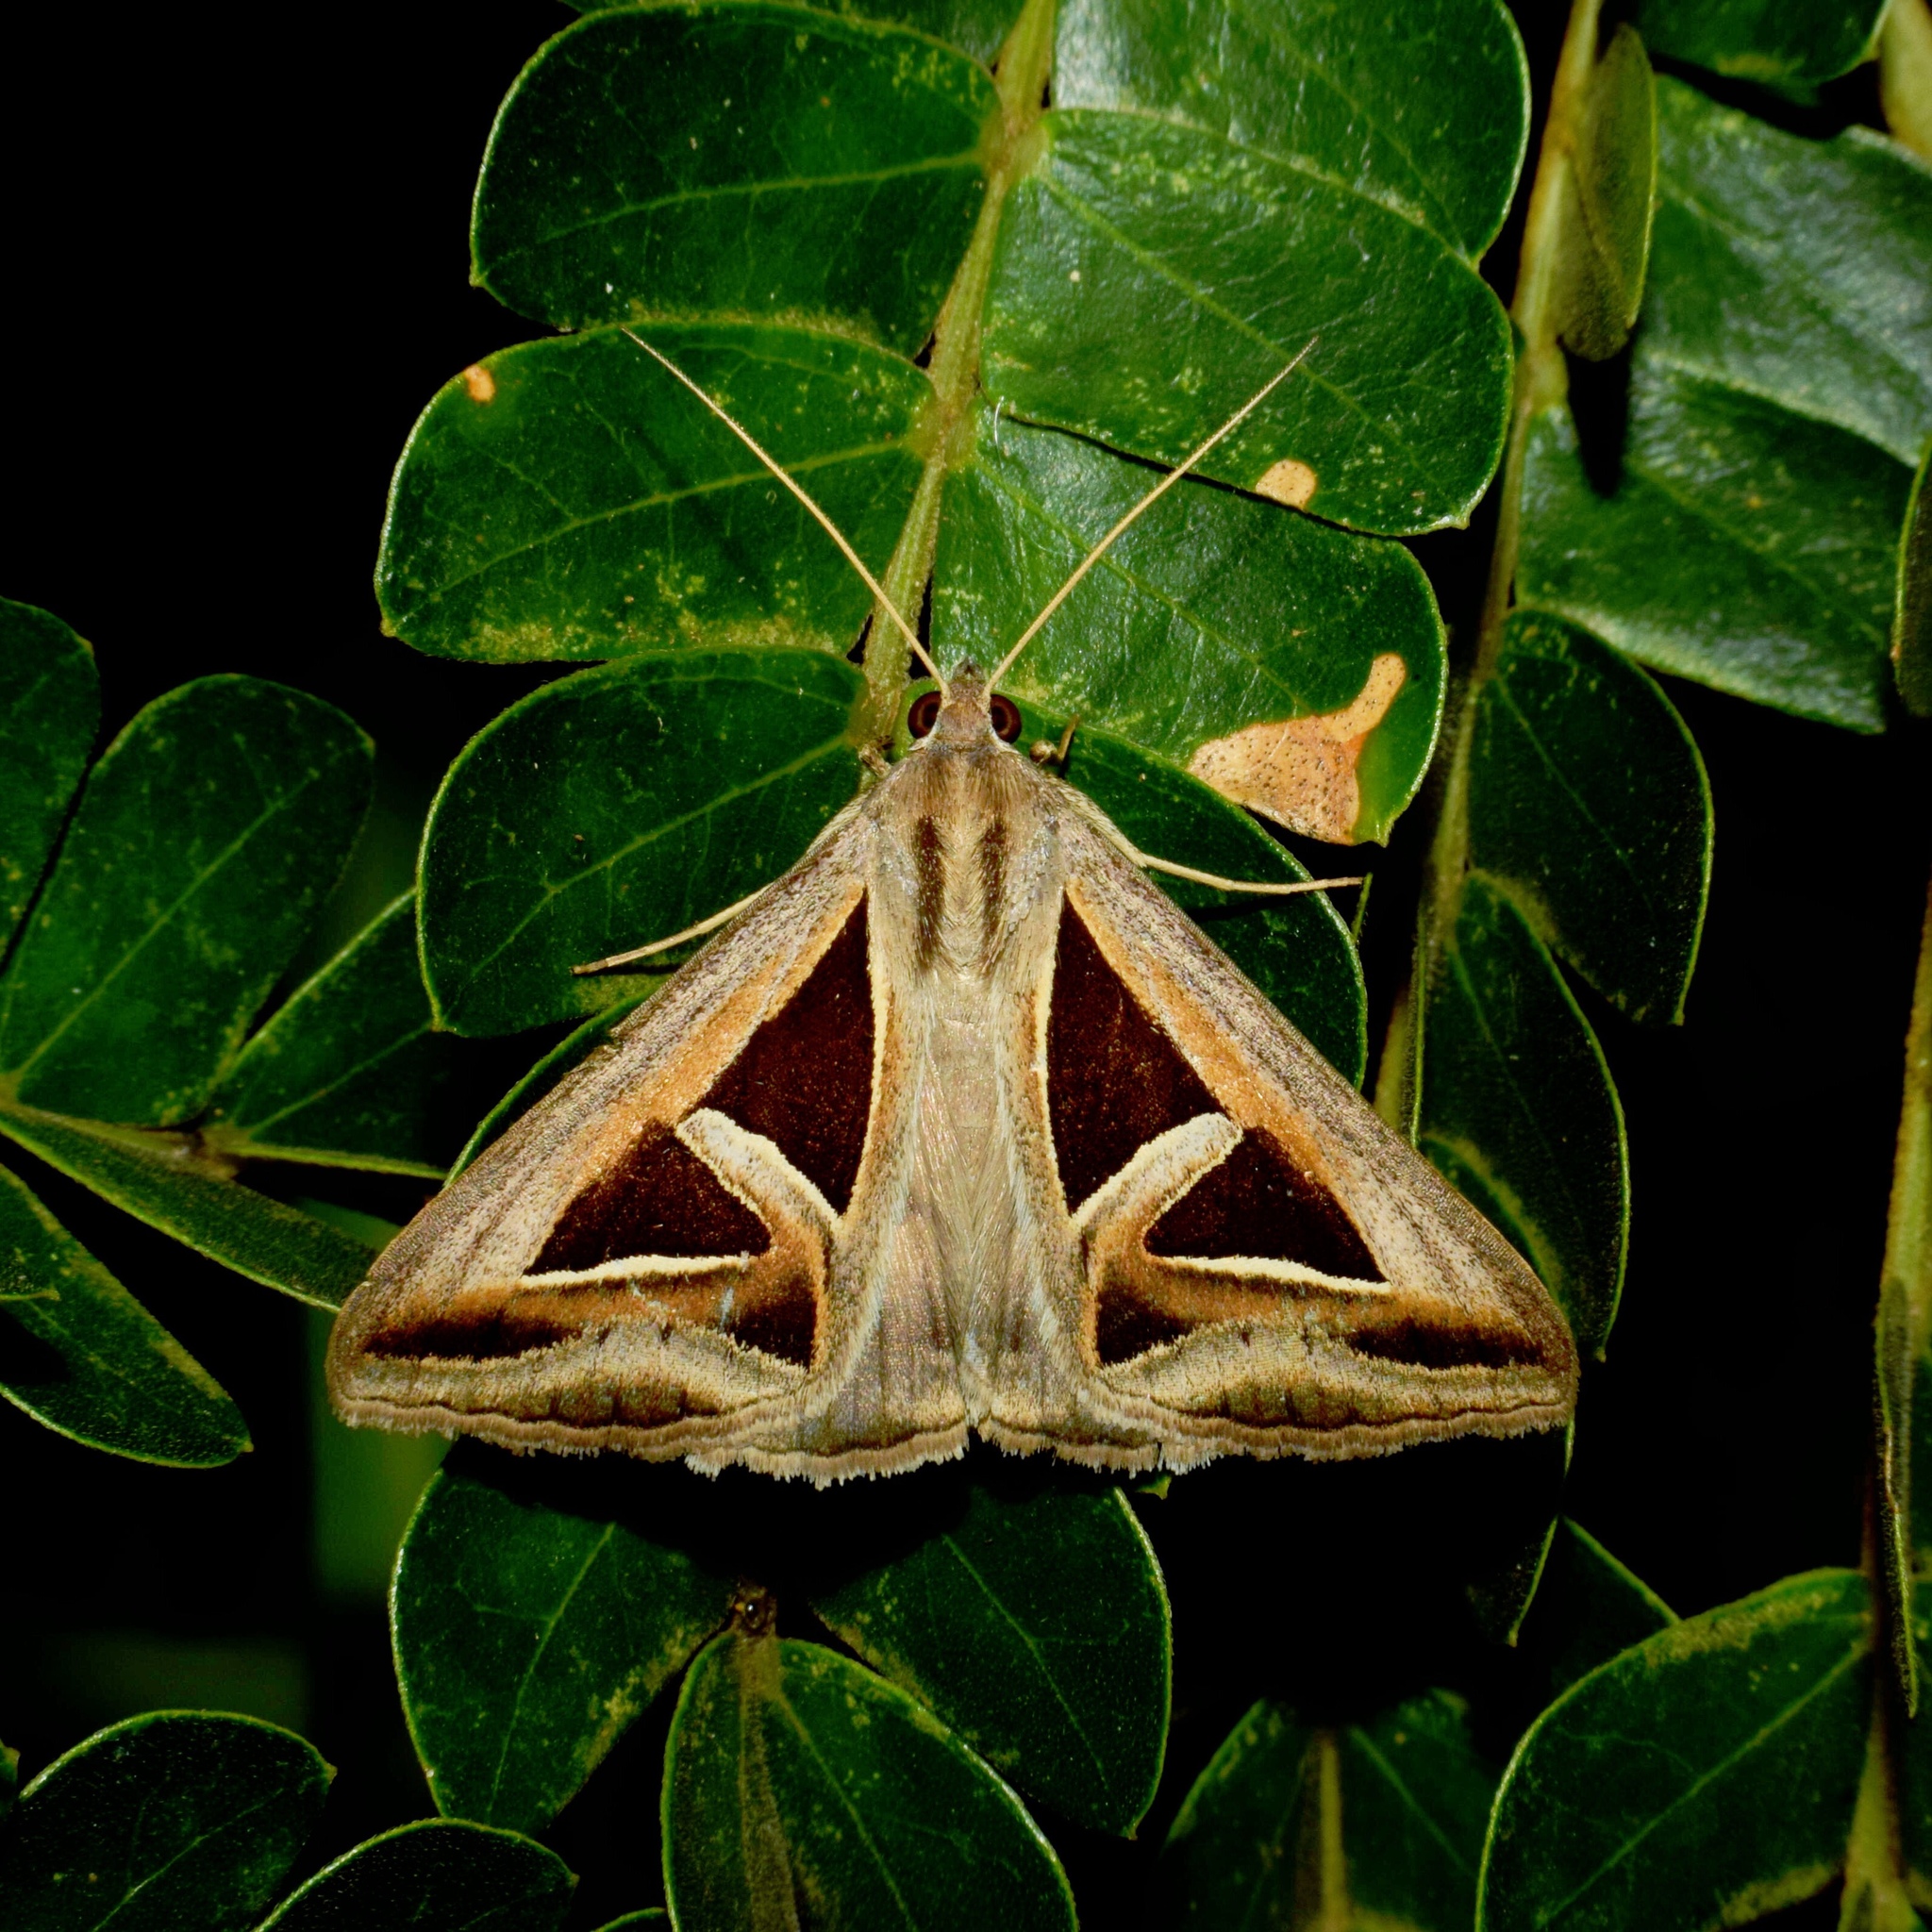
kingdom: Animalia
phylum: Arthropoda
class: Insecta
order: Lepidoptera
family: Erebidae
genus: Trigonodes
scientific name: Trigonodes hyppasia
